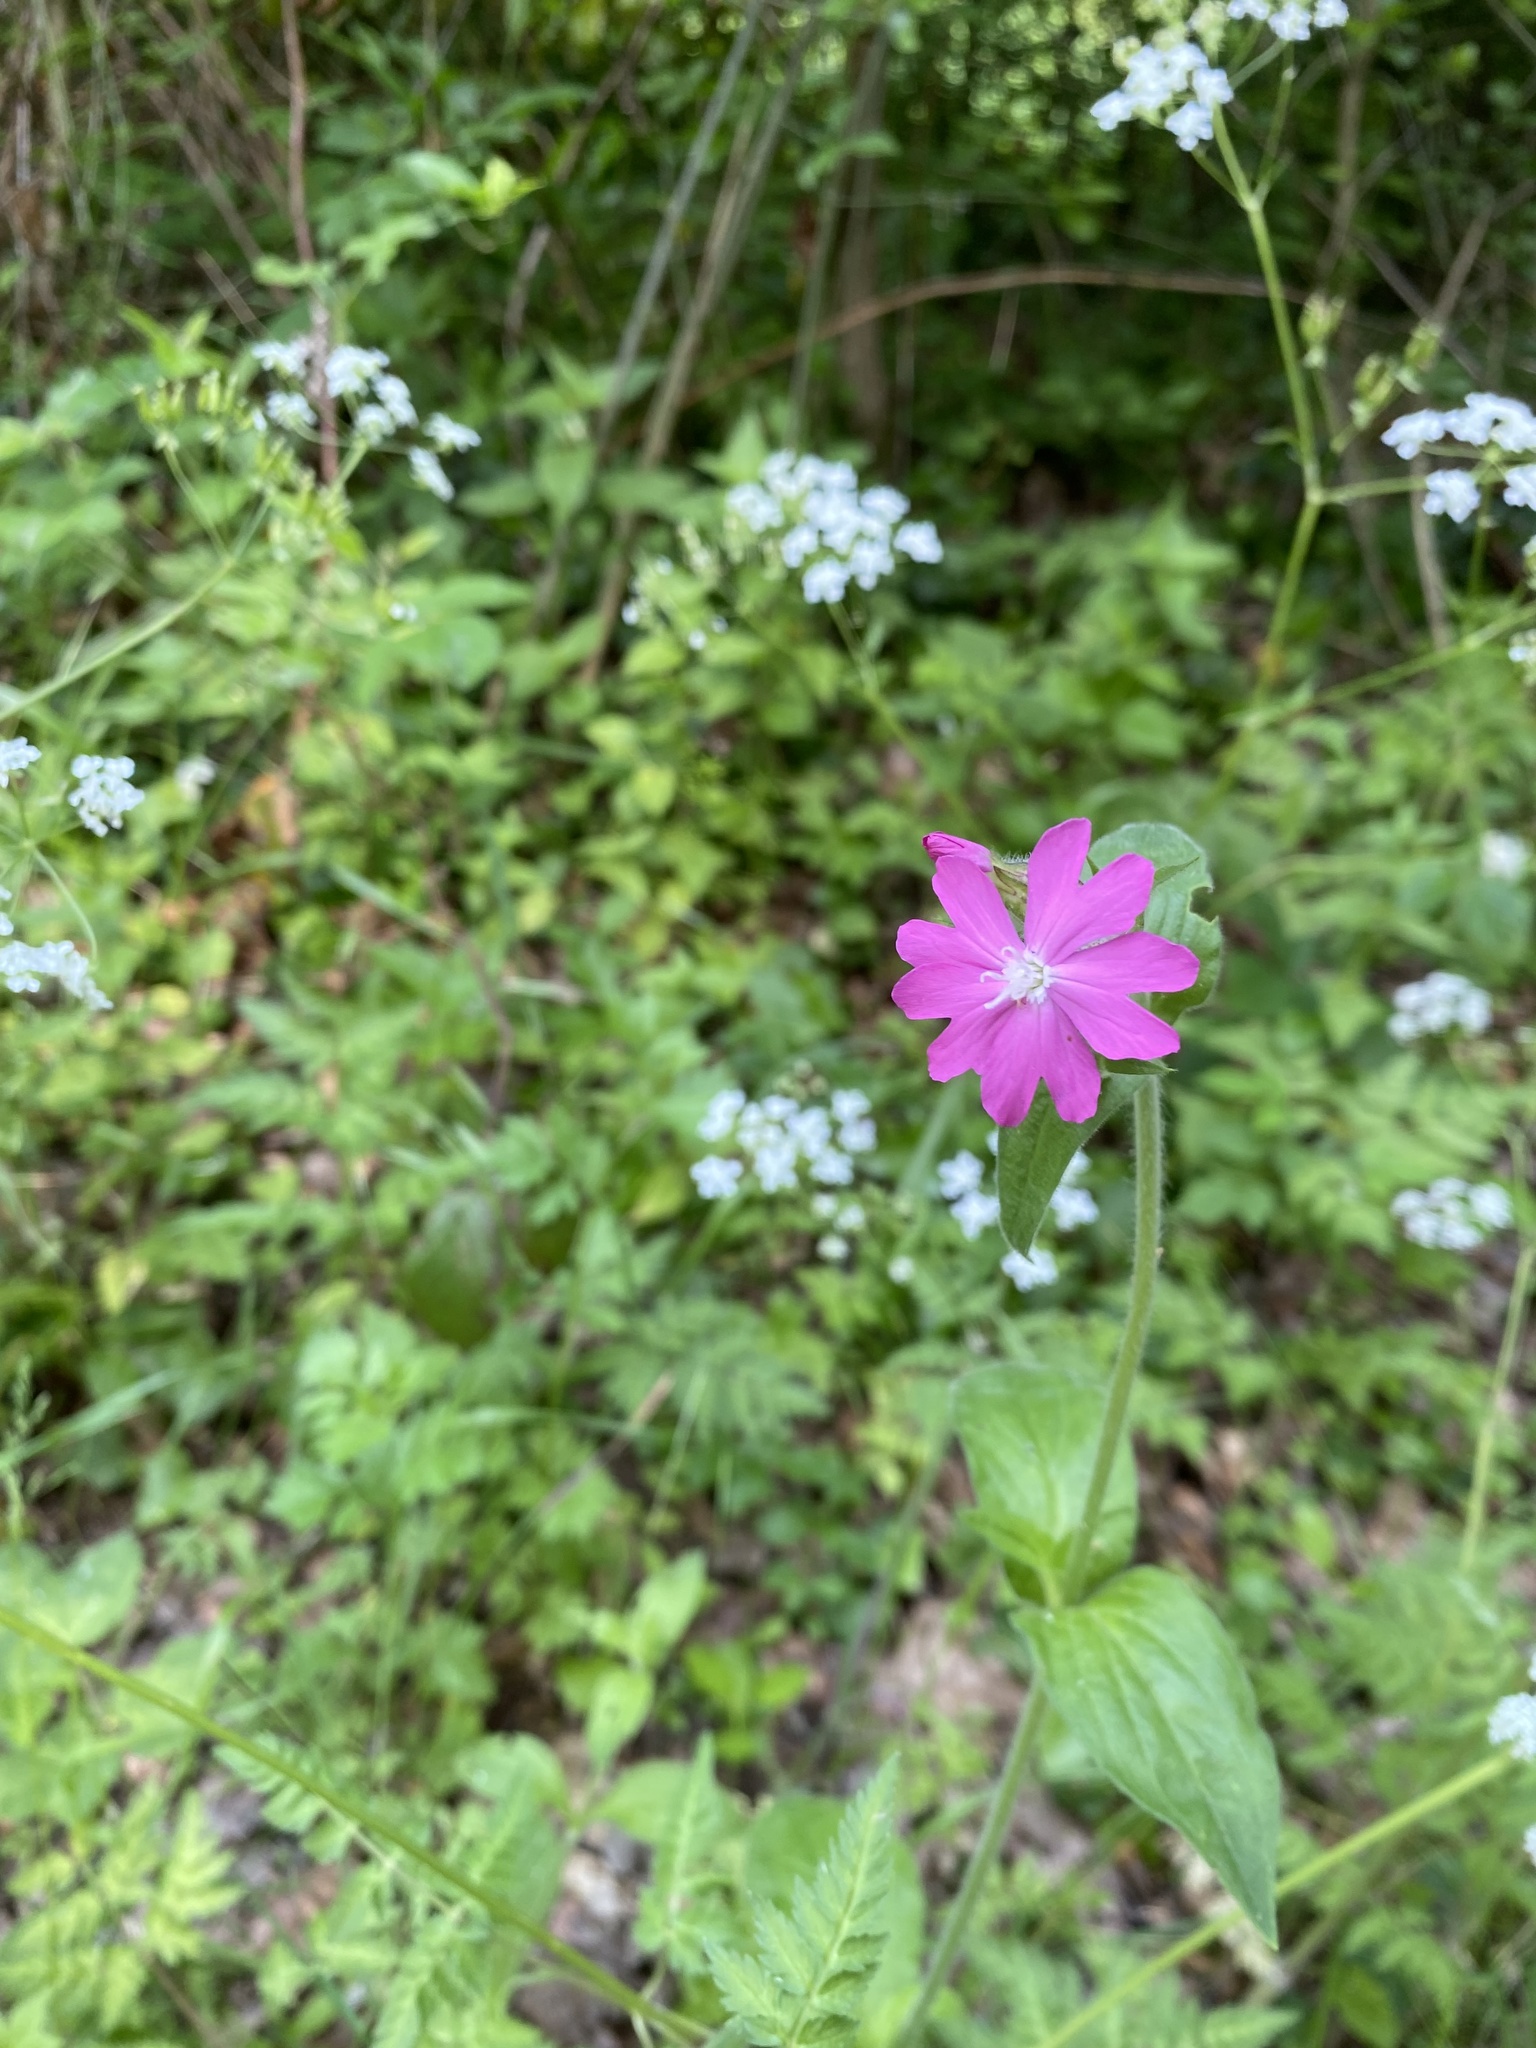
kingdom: Plantae
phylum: Tracheophyta
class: Magnoliopsida
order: Caryophyllales
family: Caryophyllaceae
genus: Silene
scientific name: Silene dioica
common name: Red campion
